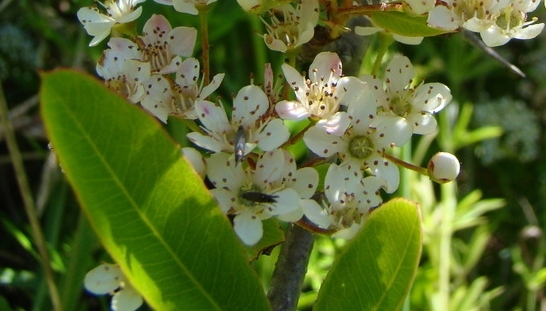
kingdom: Animalia
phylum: Arthropoda
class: Insecta
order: Lepidoptera
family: Glyphipterigidae
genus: Glyphipterix
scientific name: Glyphipterix simpliciella
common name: Cocksfoot moth
